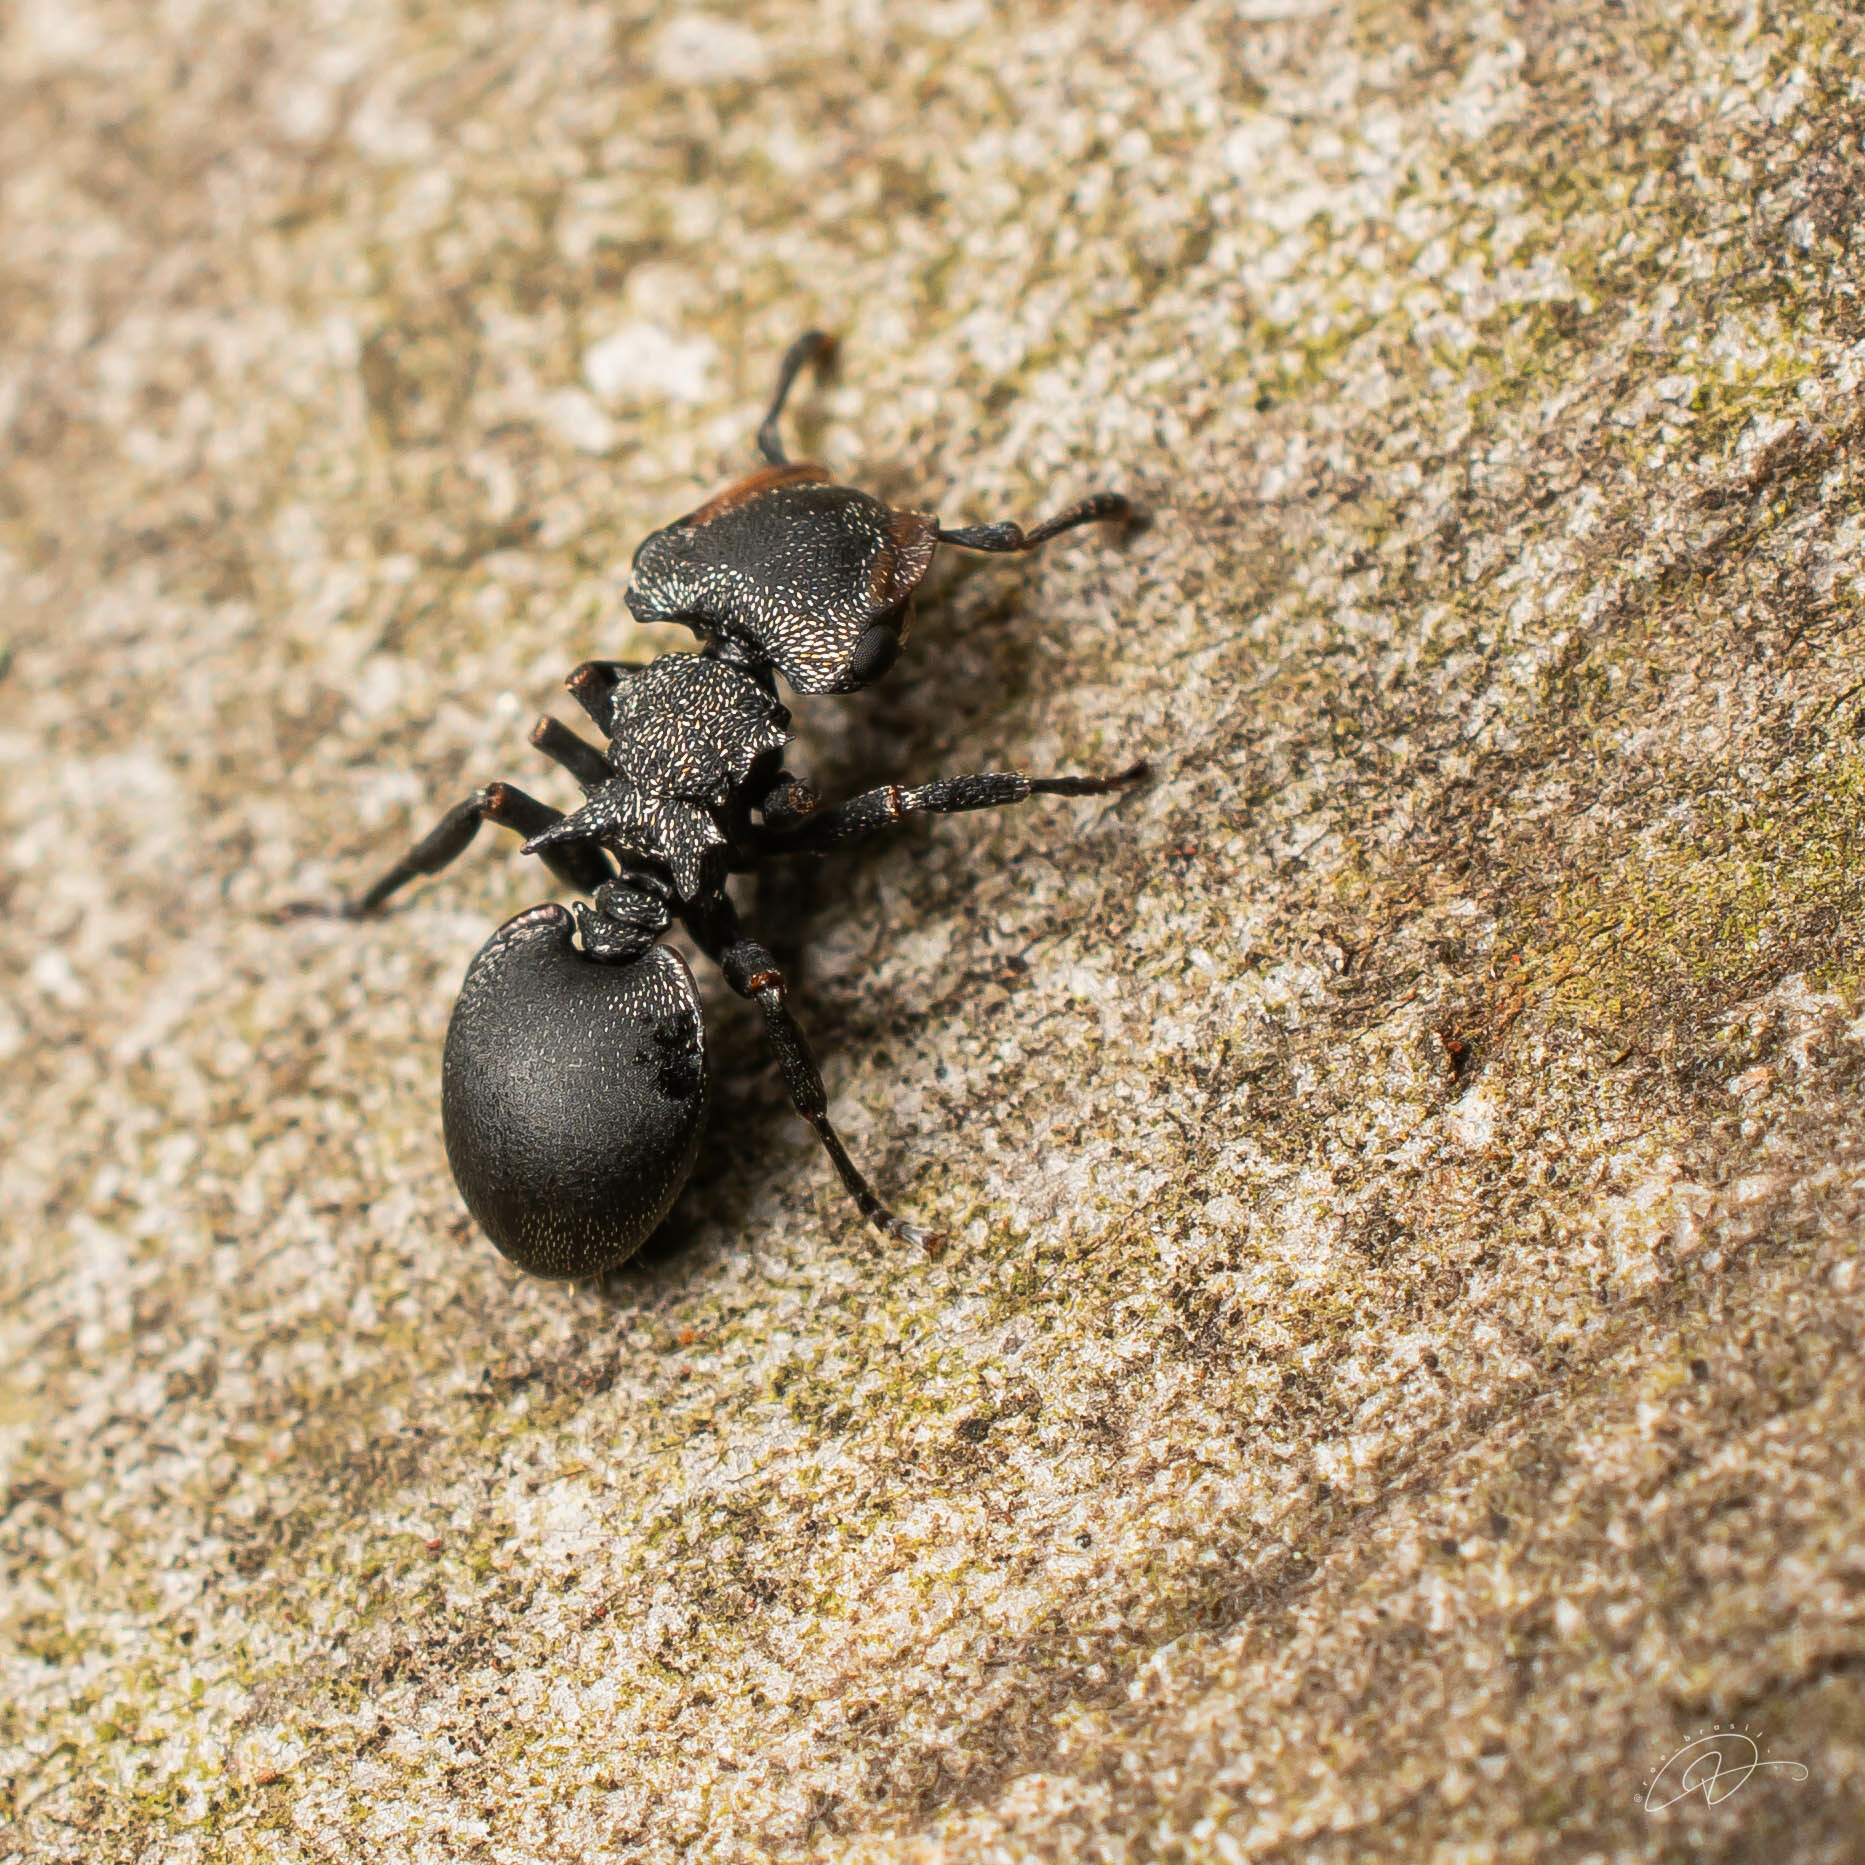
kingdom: Animalia
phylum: Arthropoda
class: Insecta
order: Hymenoptera
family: Formicidae
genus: Cephalotes
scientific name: Cephalotes pusillus
